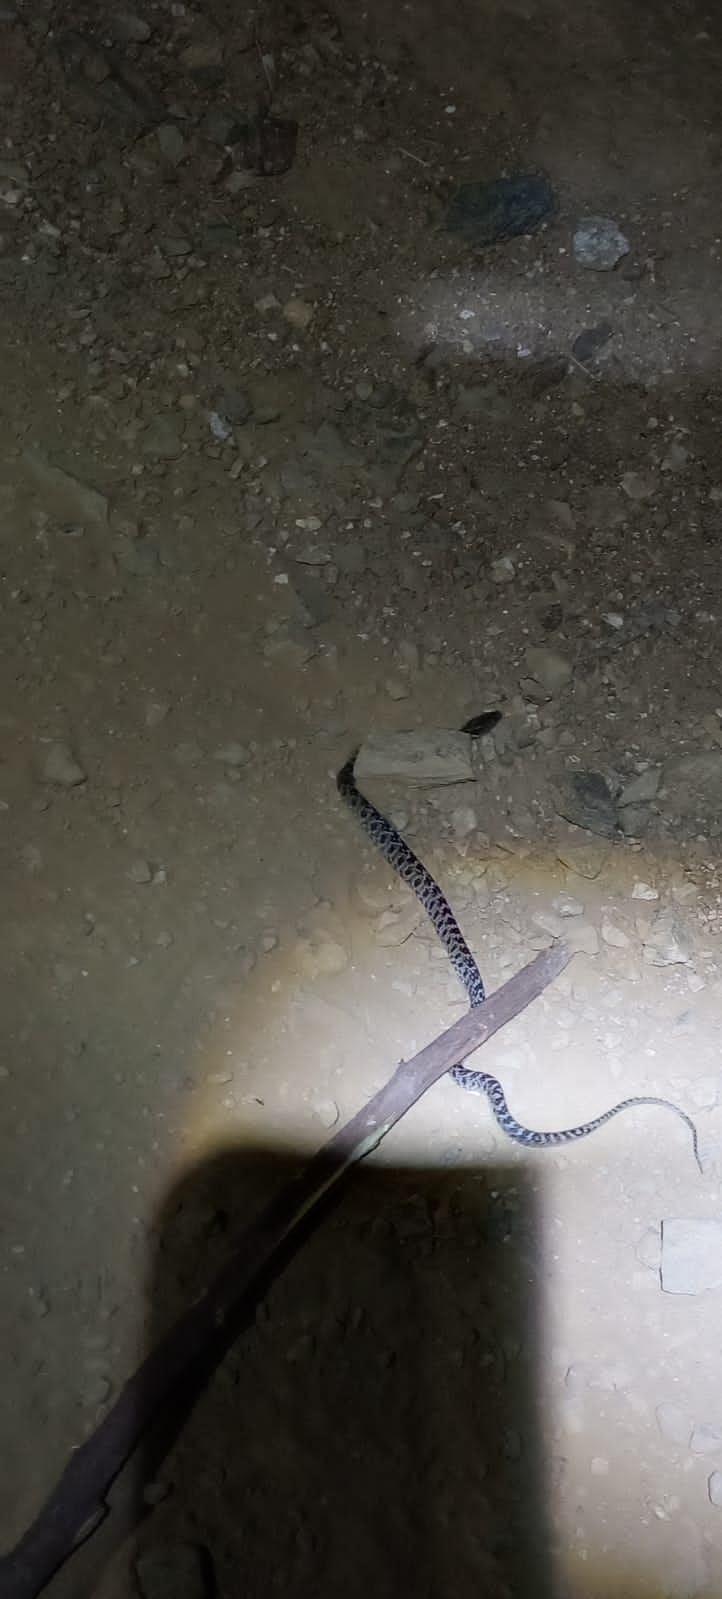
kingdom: Animalia
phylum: Chordata
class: Squamata
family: Colubridae
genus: Senticolis
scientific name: Senticolis triaspis
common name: Green rat snake
